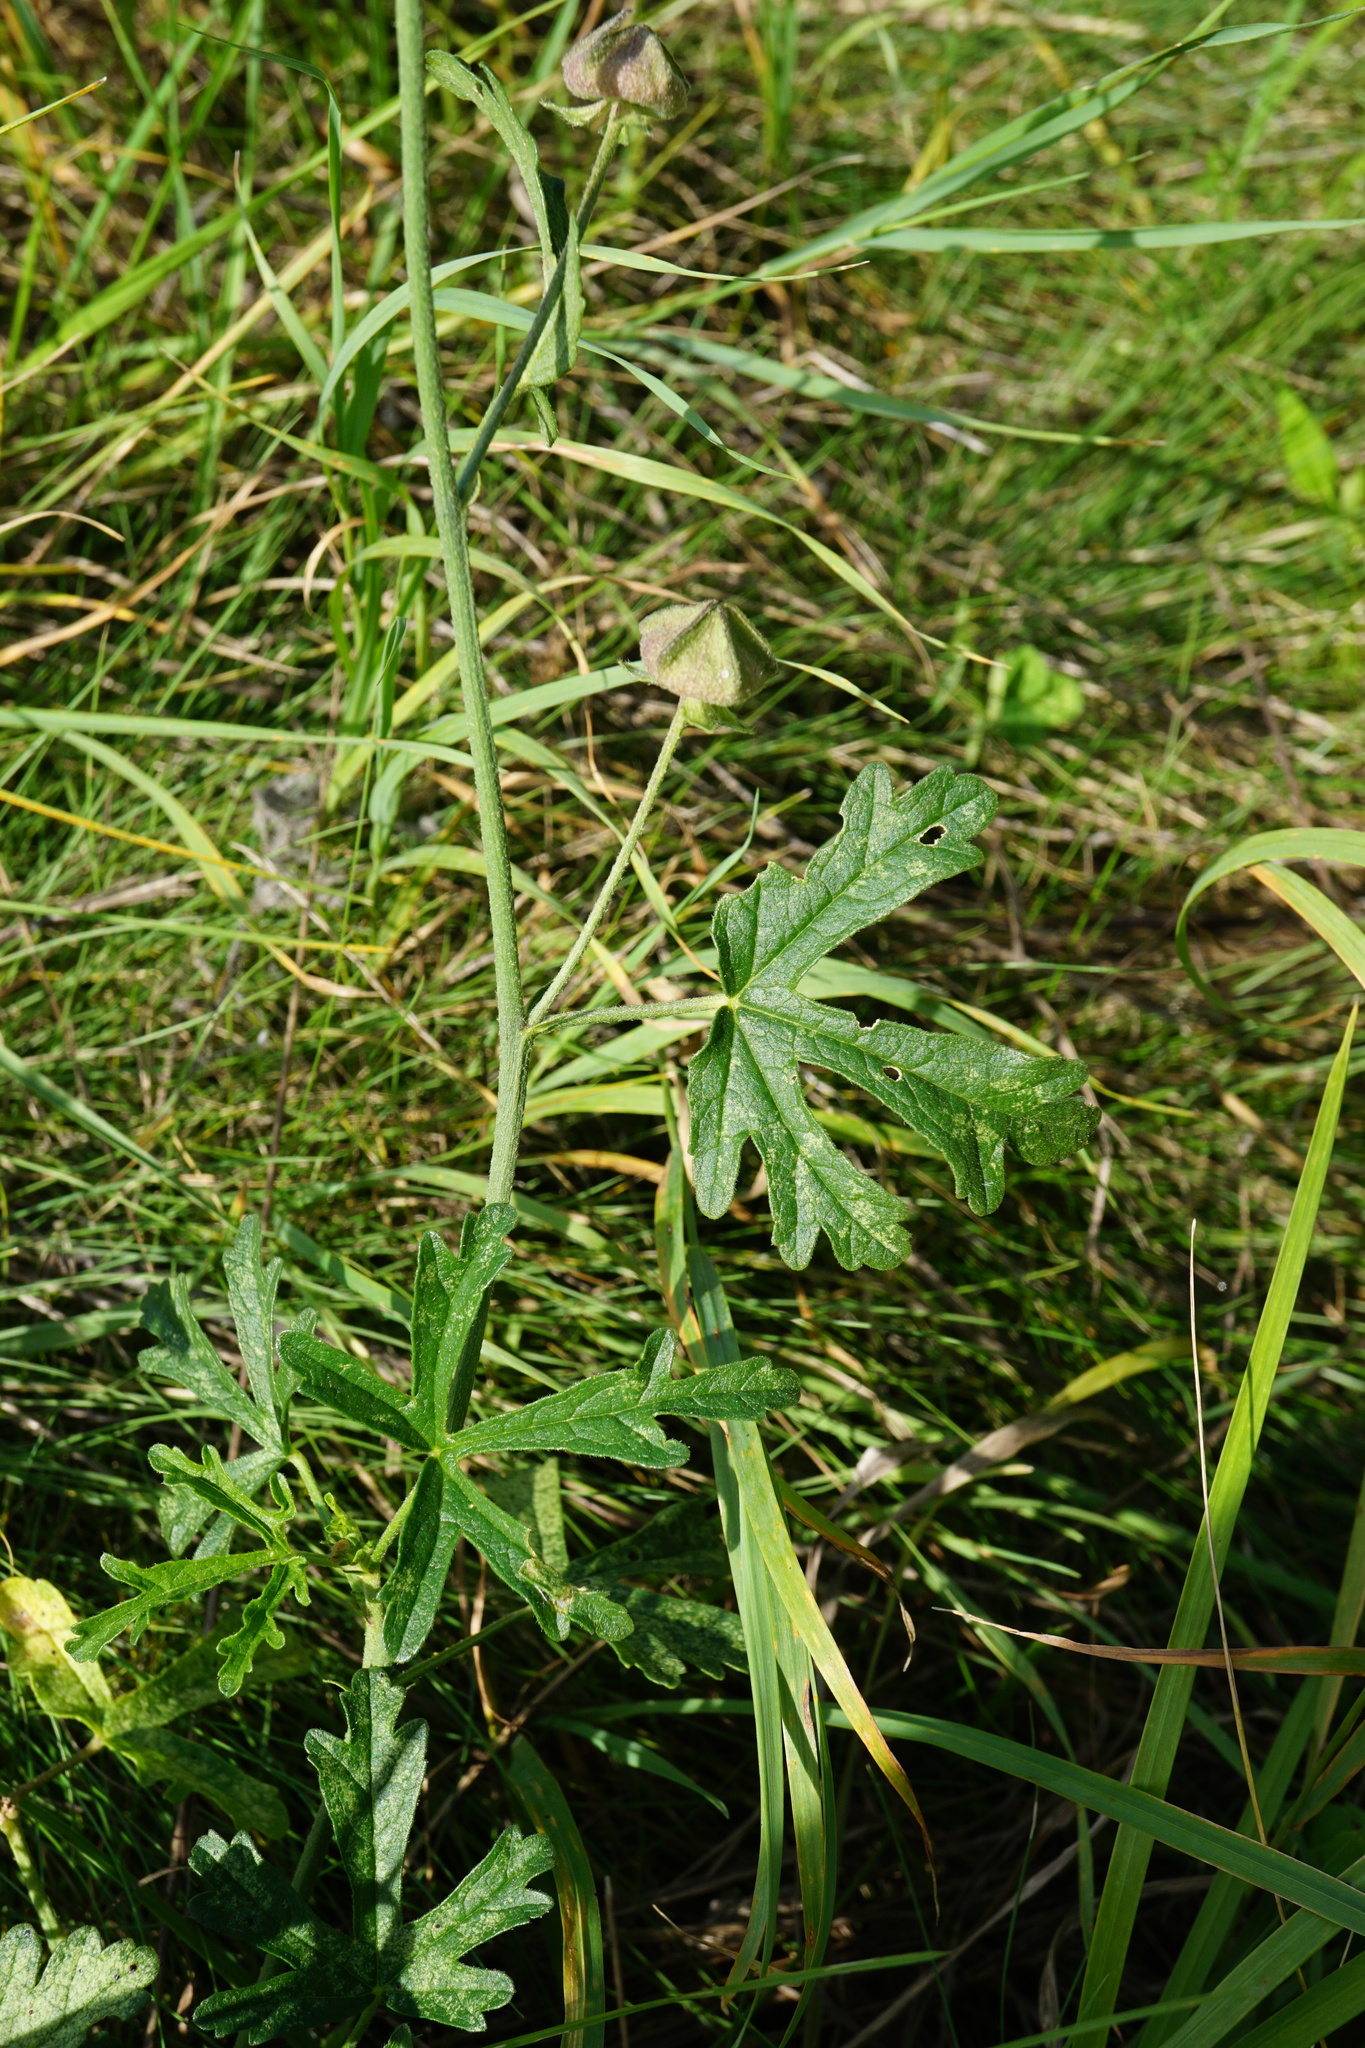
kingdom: Plantae
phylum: Tracheophyta
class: Magnoliopsida
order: Malvales
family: Malvaceae
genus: Malva
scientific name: Malva alcea
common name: Greater musk-mallow
